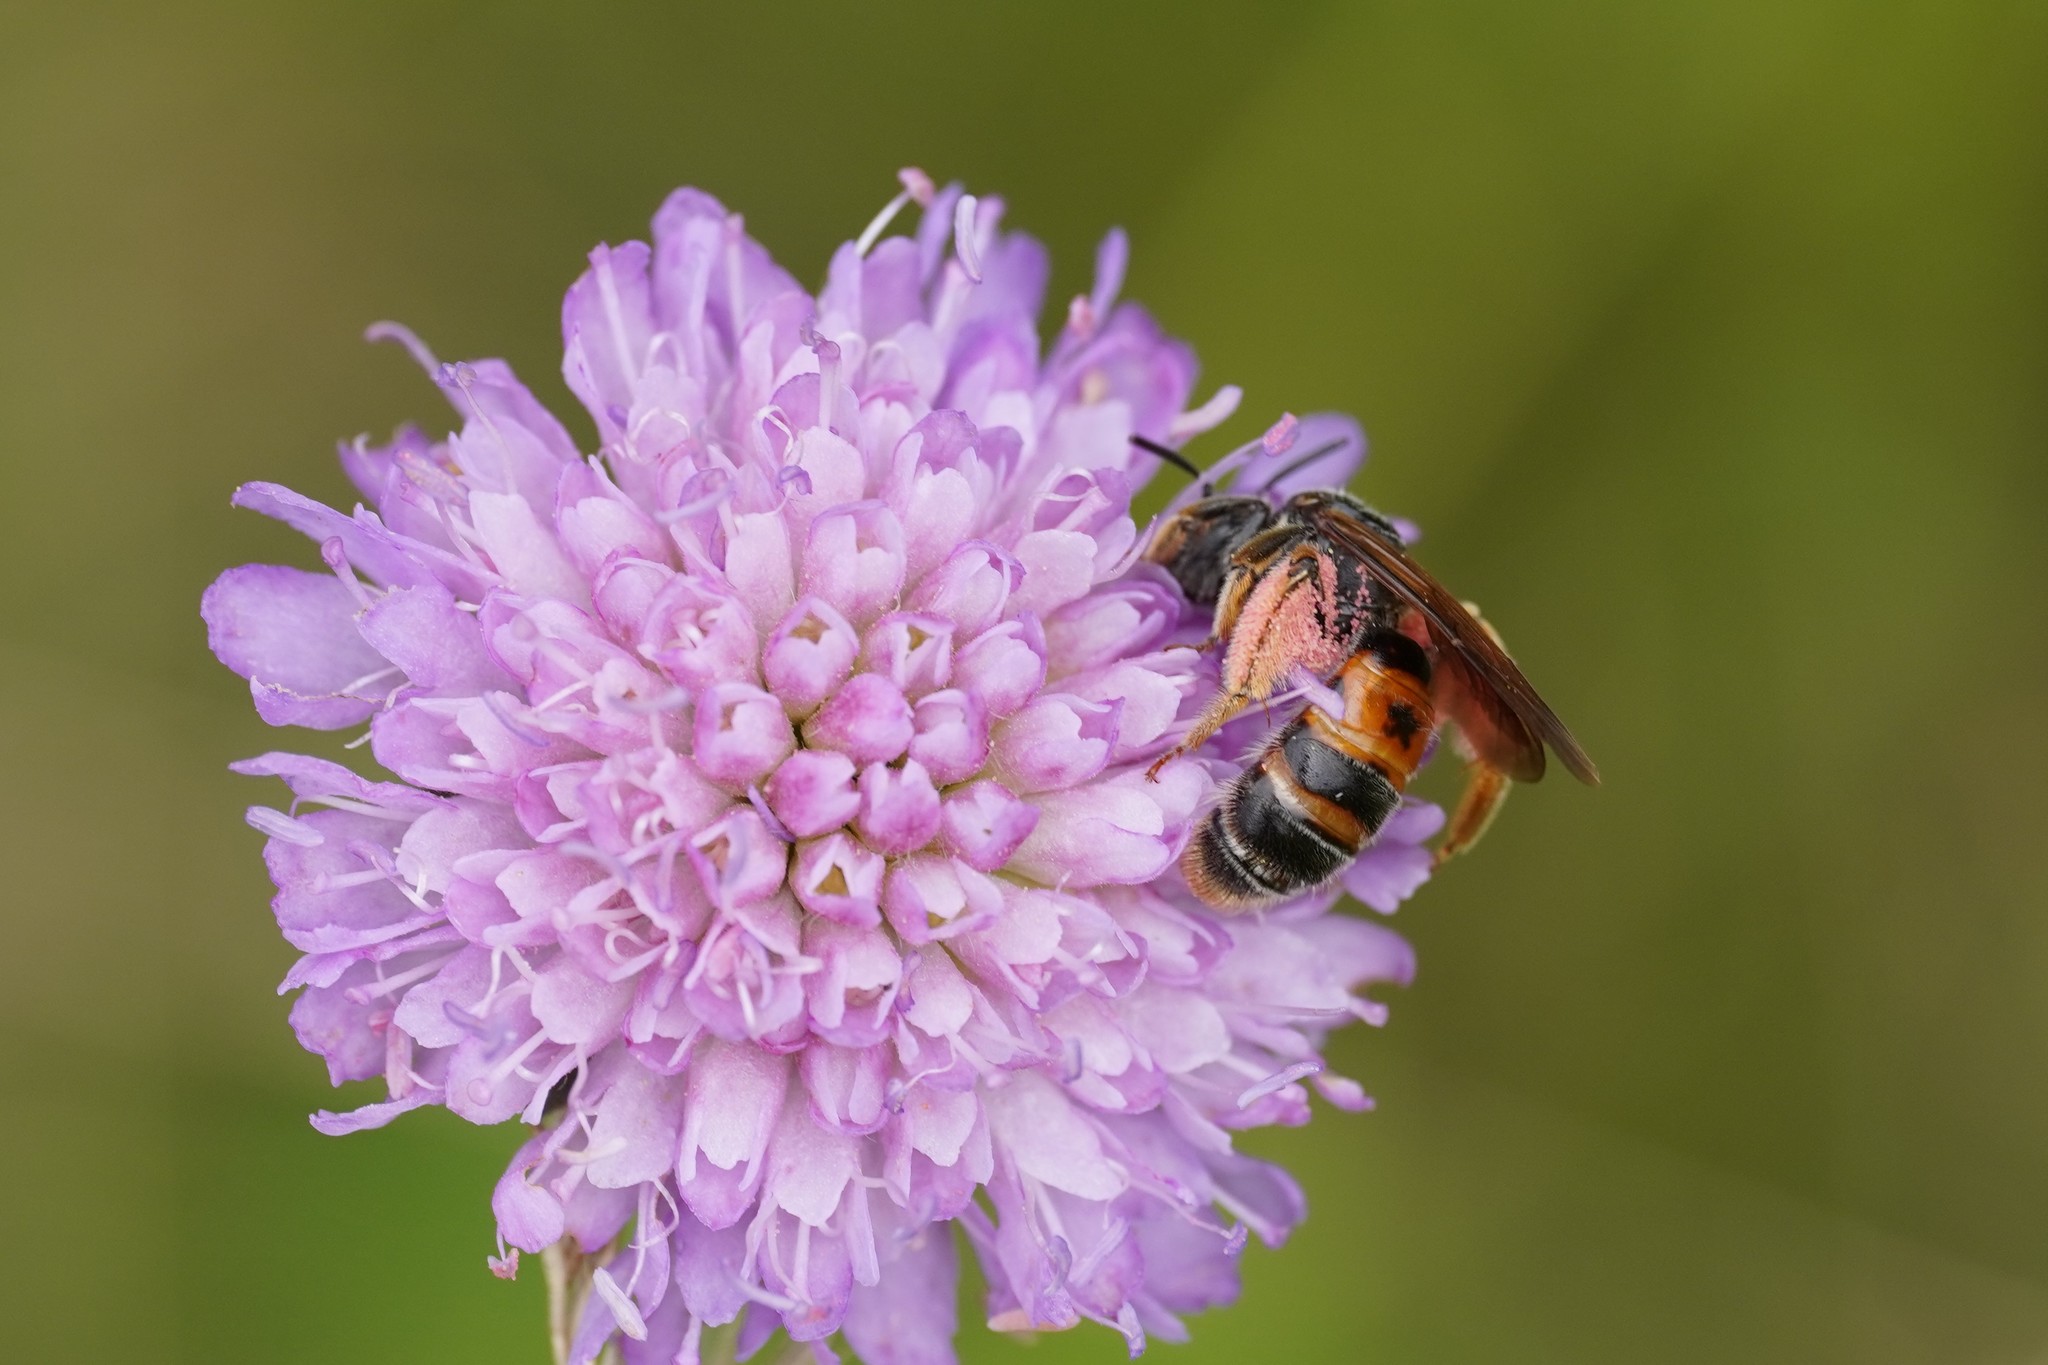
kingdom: Animalia
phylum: Arthropoda
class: Insecta
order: Hymenoptera
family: Andrenidae
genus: Andrena
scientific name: Andrena hattorfiana
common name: Large scabious mining bee
